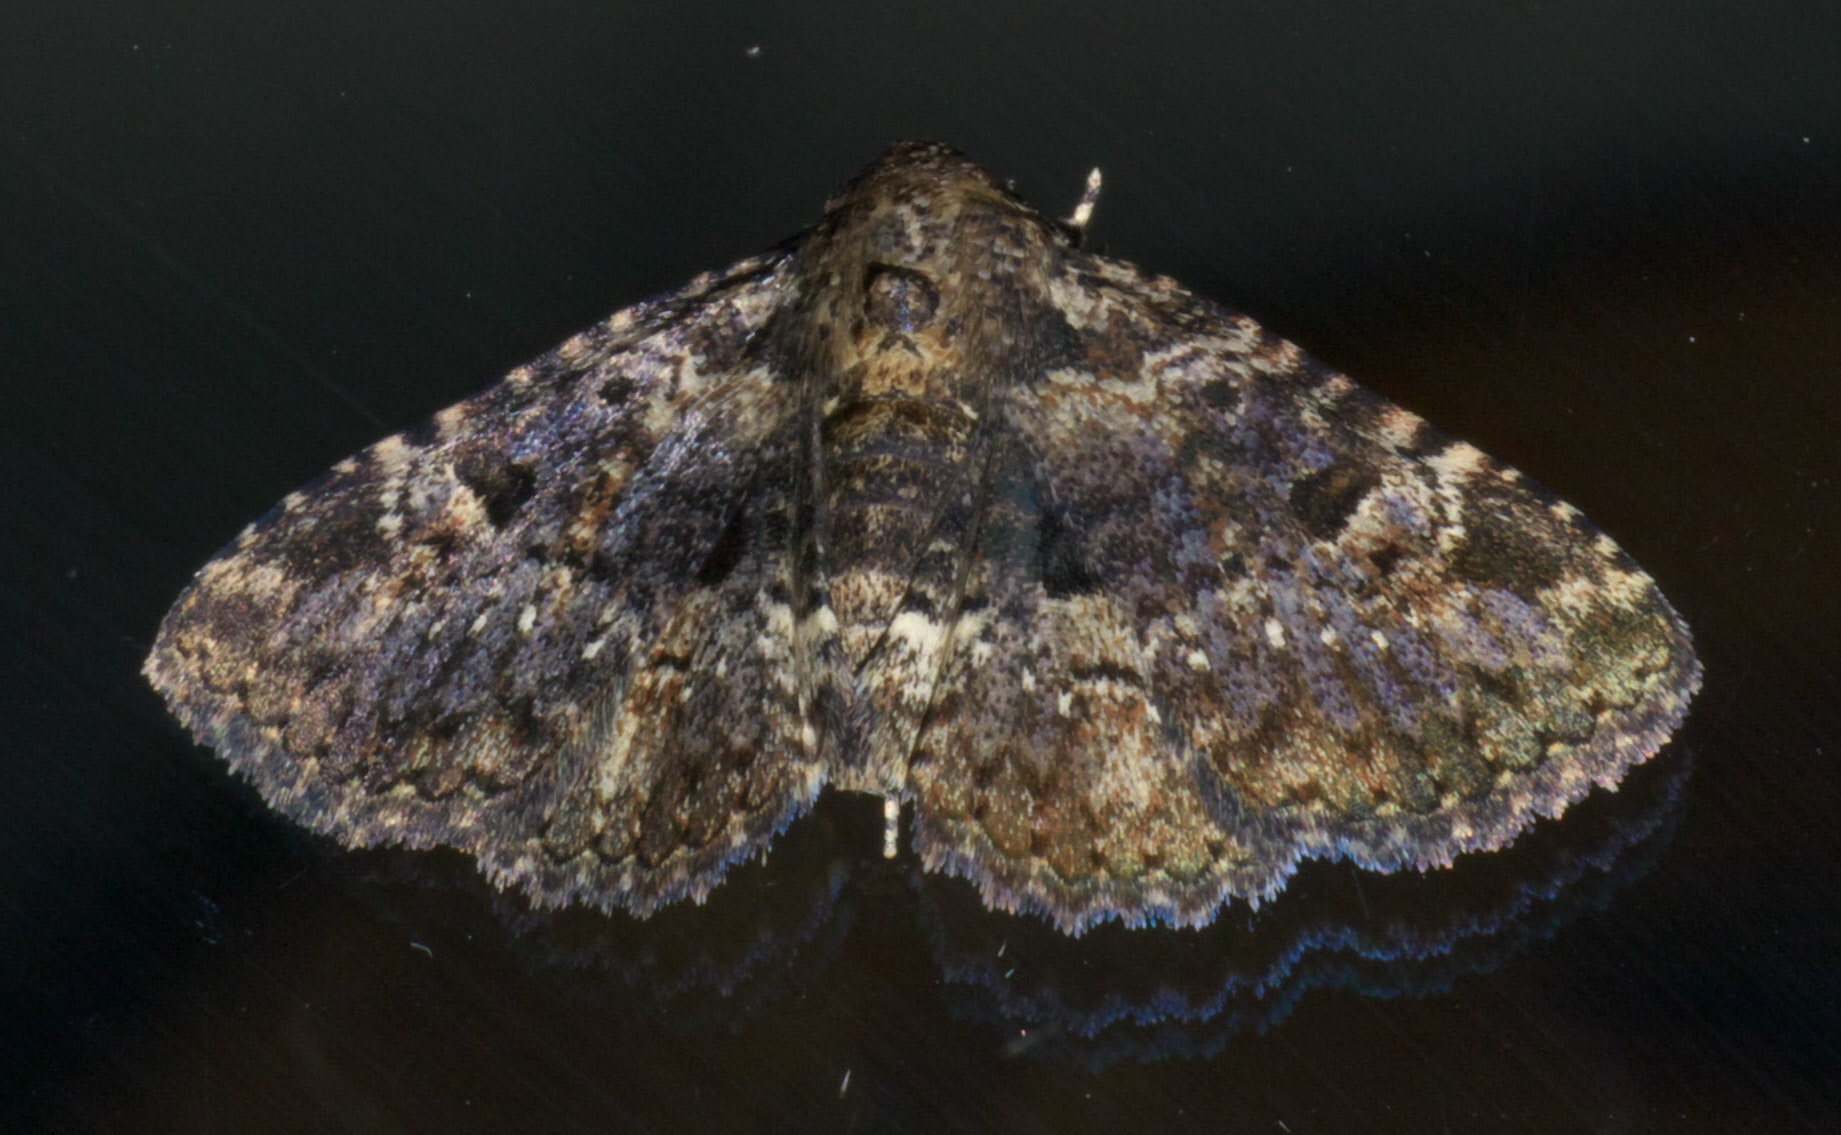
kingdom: Animalia
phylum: Arthropoda
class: Insecta
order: Lepidoptera
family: Erebidae
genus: Metalectra
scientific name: Metalectra discalis
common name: Common fungus moth
